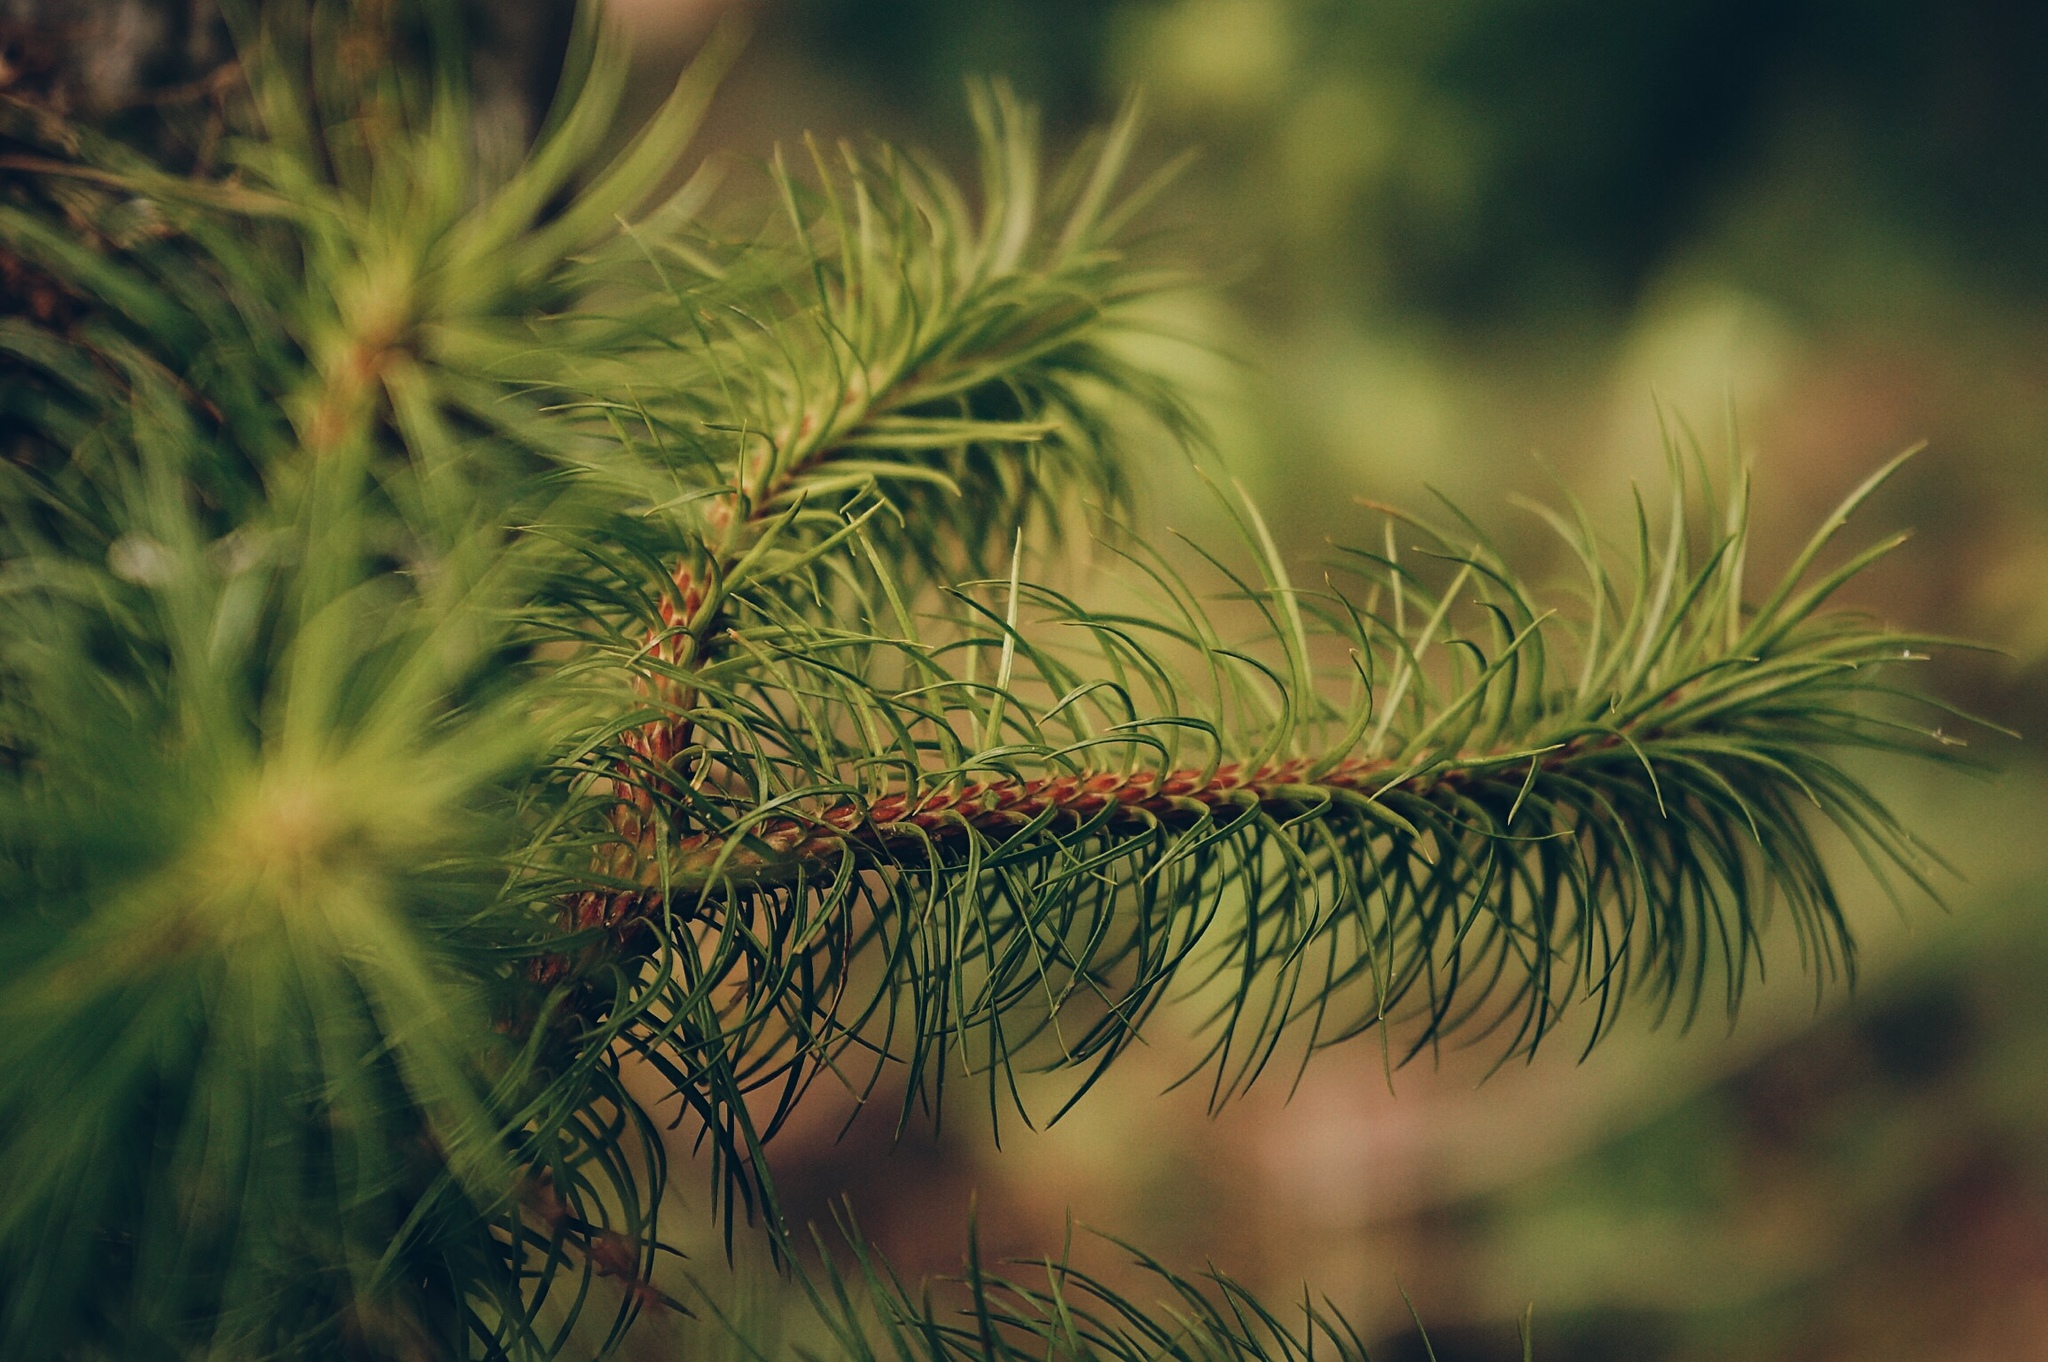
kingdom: Plantae
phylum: Tracheophyta
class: Lycopodiopsida
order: Lycopodiales
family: Lycopodiaceae
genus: Phlegmariurus
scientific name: Phlegmariurus pithyoides
